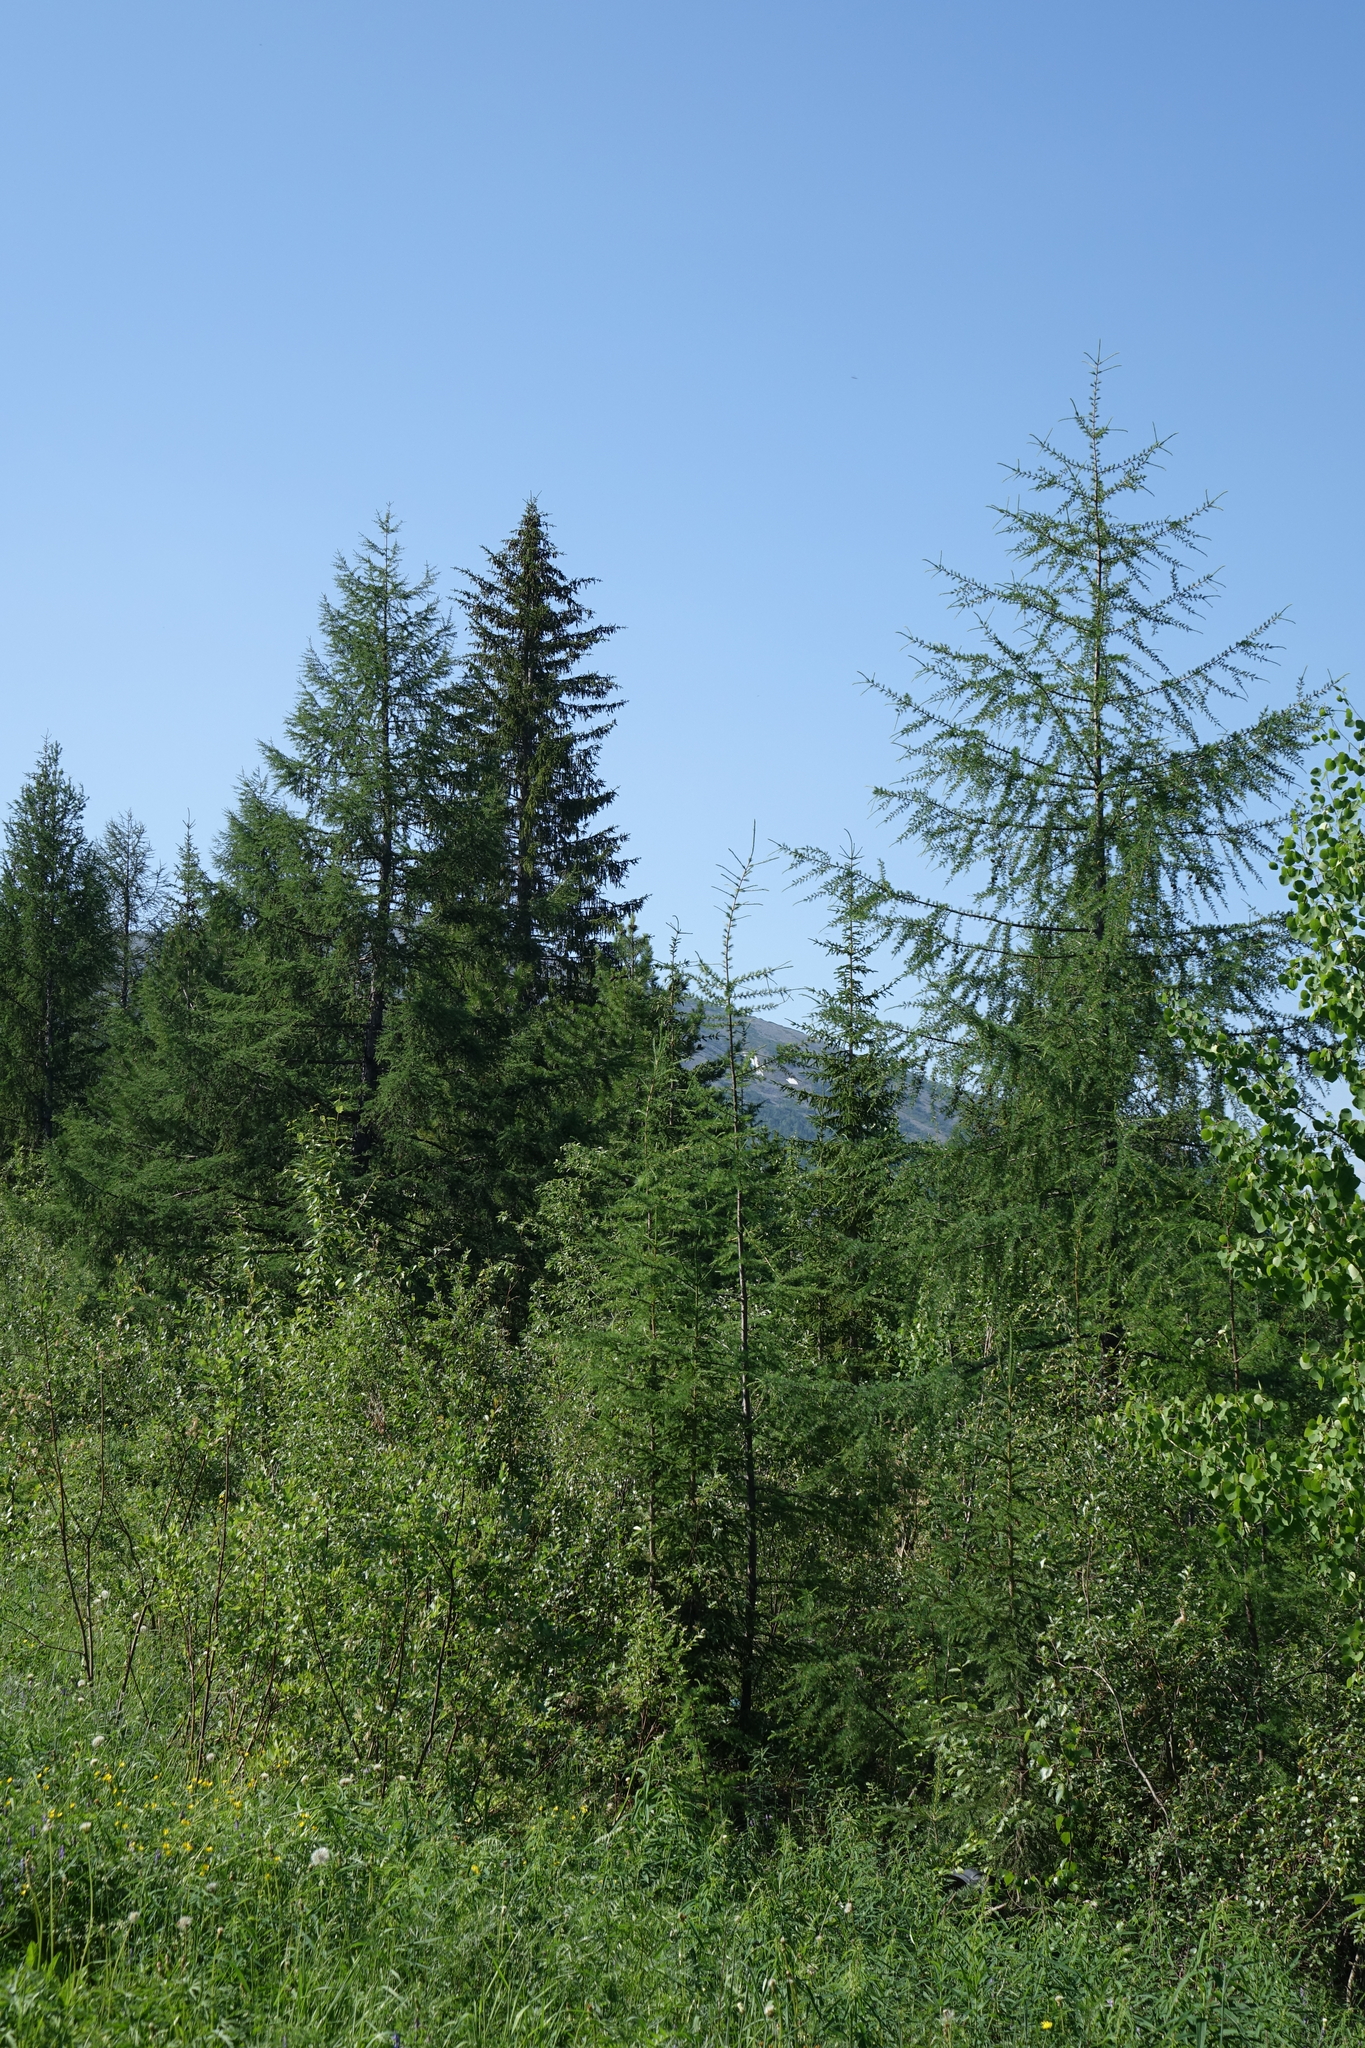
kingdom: Plantae
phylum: Tracheophyta
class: Pinopsida
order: Pinales
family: Pinaceae
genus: Picea
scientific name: Picea obovata
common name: Siberian spruce
